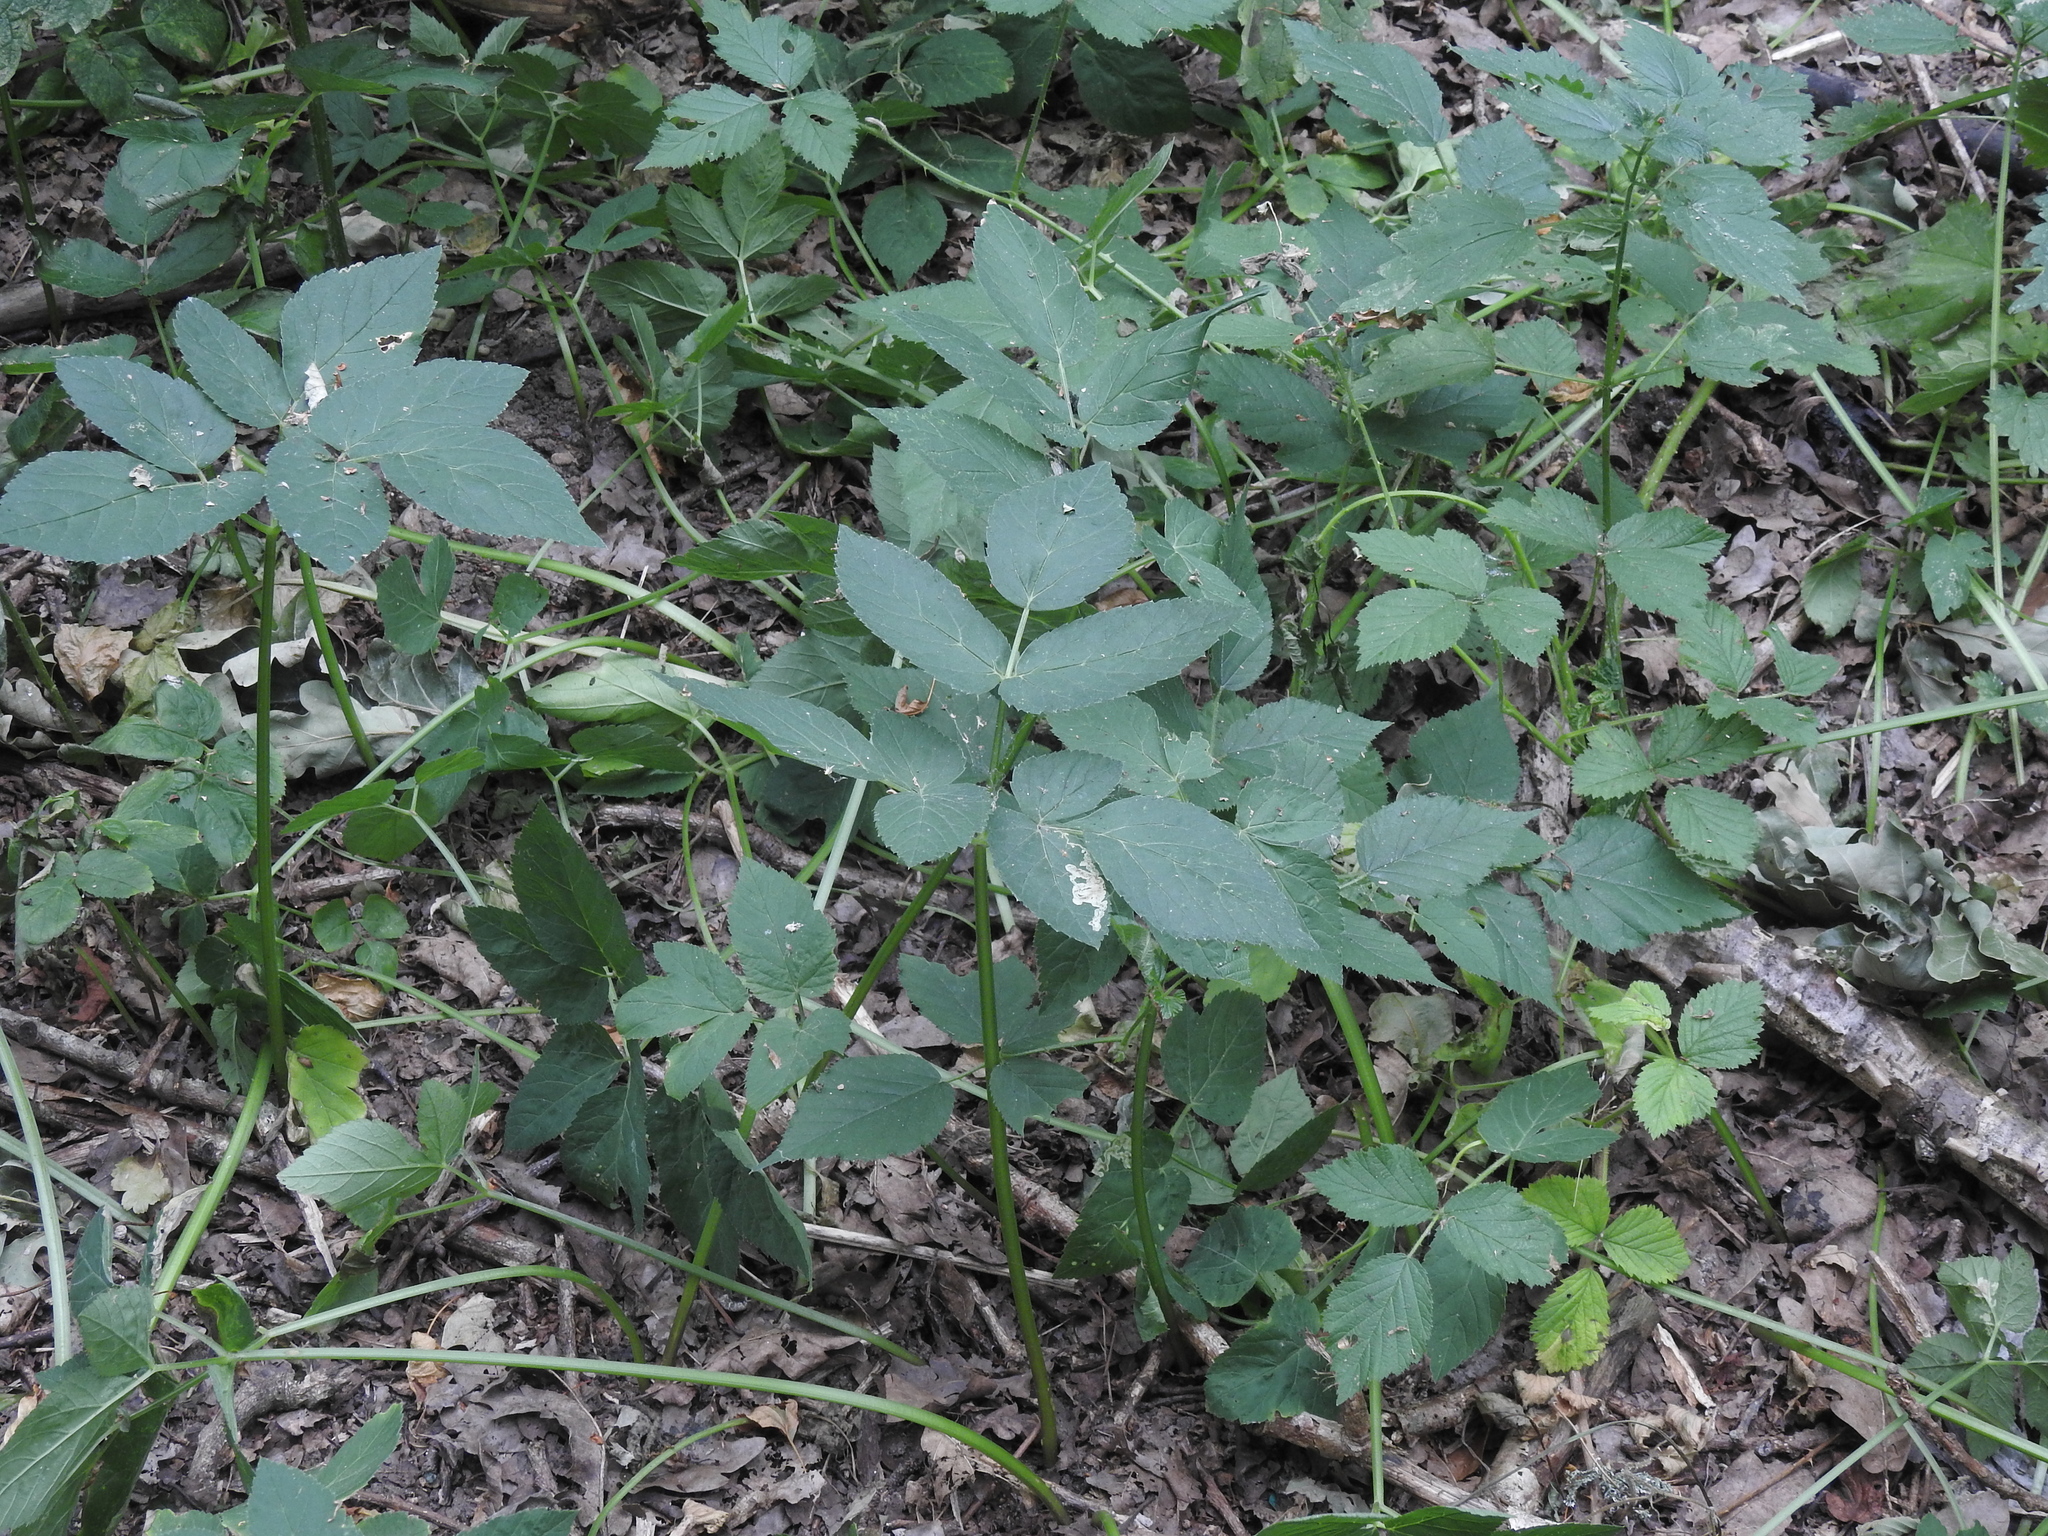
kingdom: Plantae
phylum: Tracheophyta
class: Magnoliopsida
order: Apiales
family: Apiaceae
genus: Aegopodium
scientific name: Aegopodium podagraria
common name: Ground-elder
